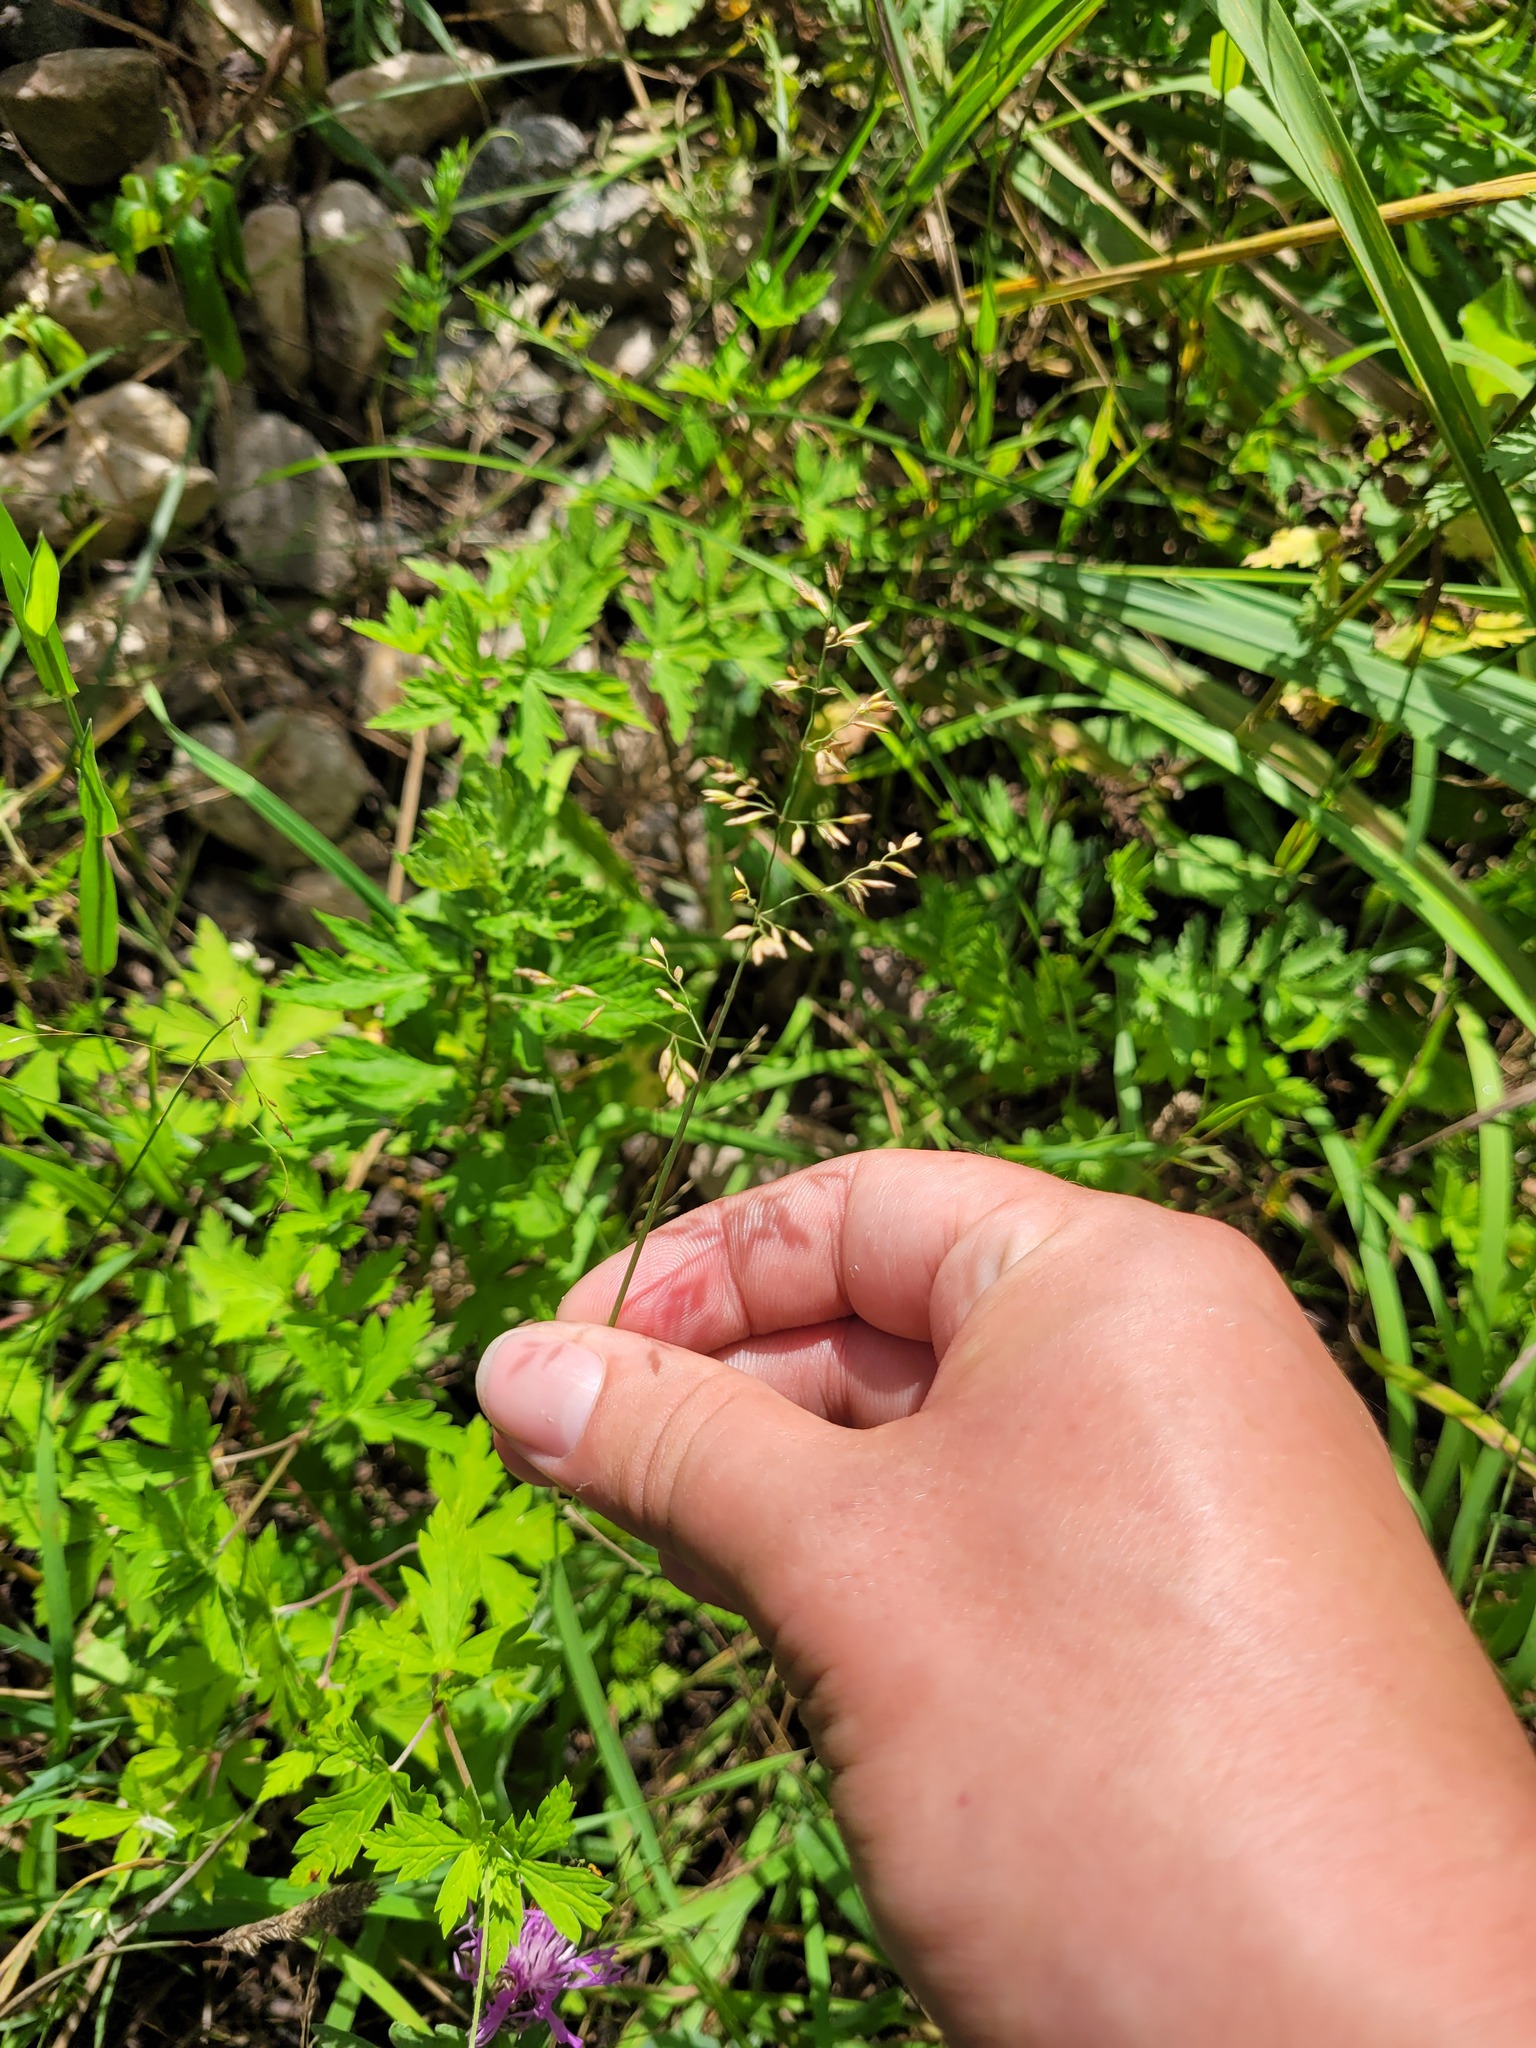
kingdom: Plantae
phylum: Tracheophyta
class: Liliopsida
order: Poales
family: Poaceae
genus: Poa
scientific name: Poa compressa
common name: Canada bluegrass
